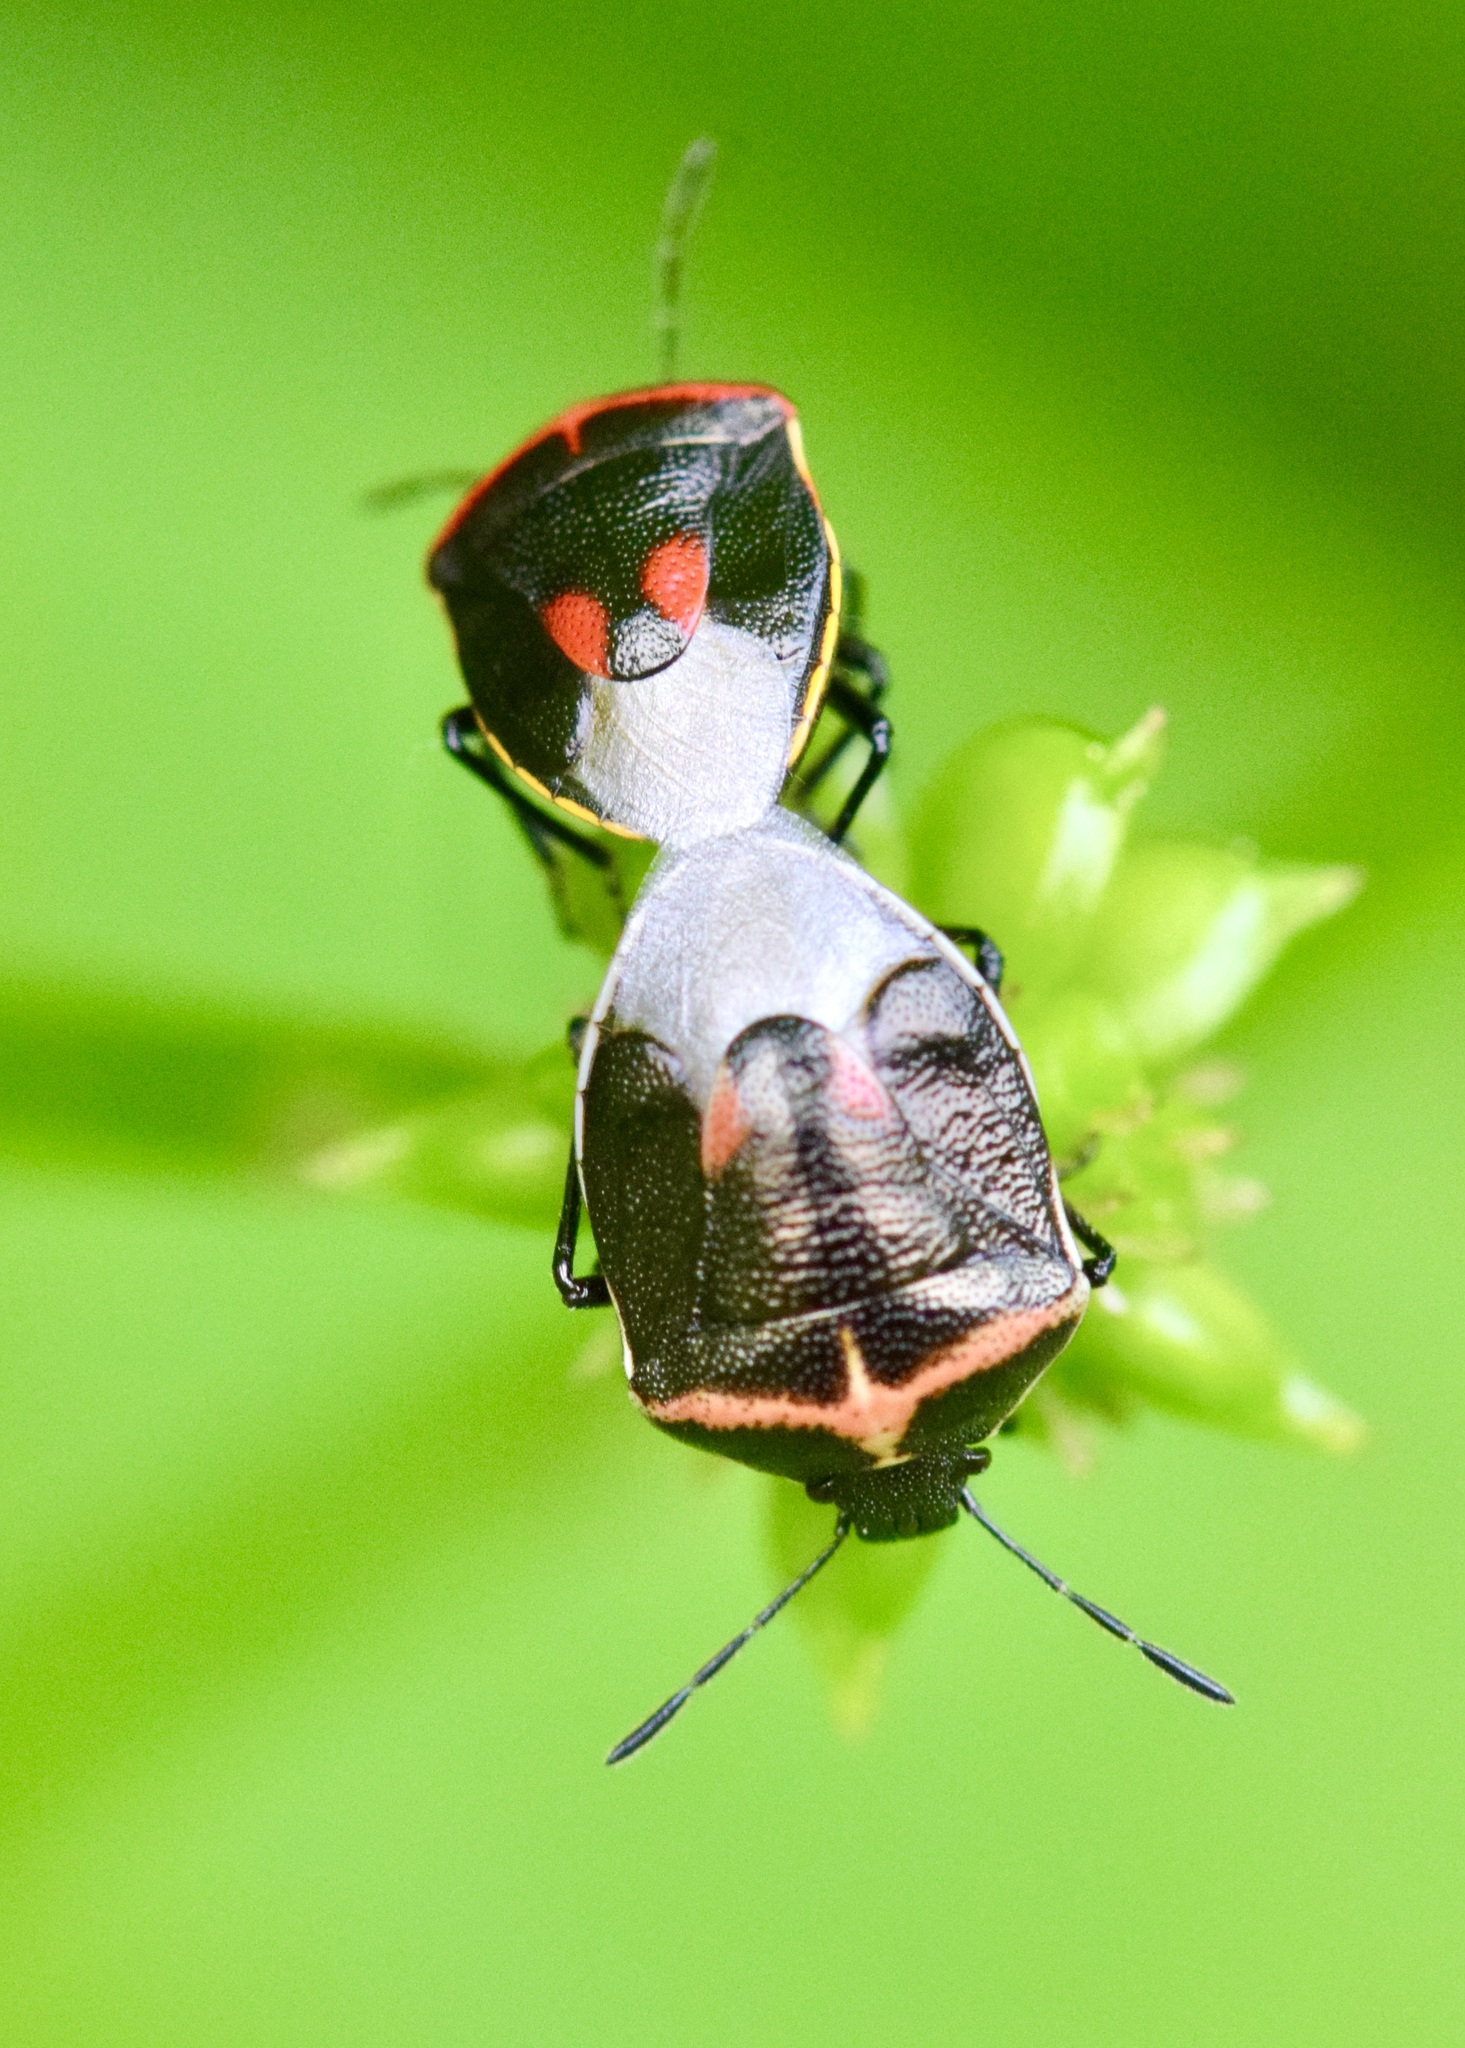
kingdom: Animalia
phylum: Arthropoda
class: Insecta
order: Hemiptera
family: Pentatomidae
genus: Cosmopepla
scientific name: Cosmopepla lintneriana
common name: Twice-stabbed stink bug
